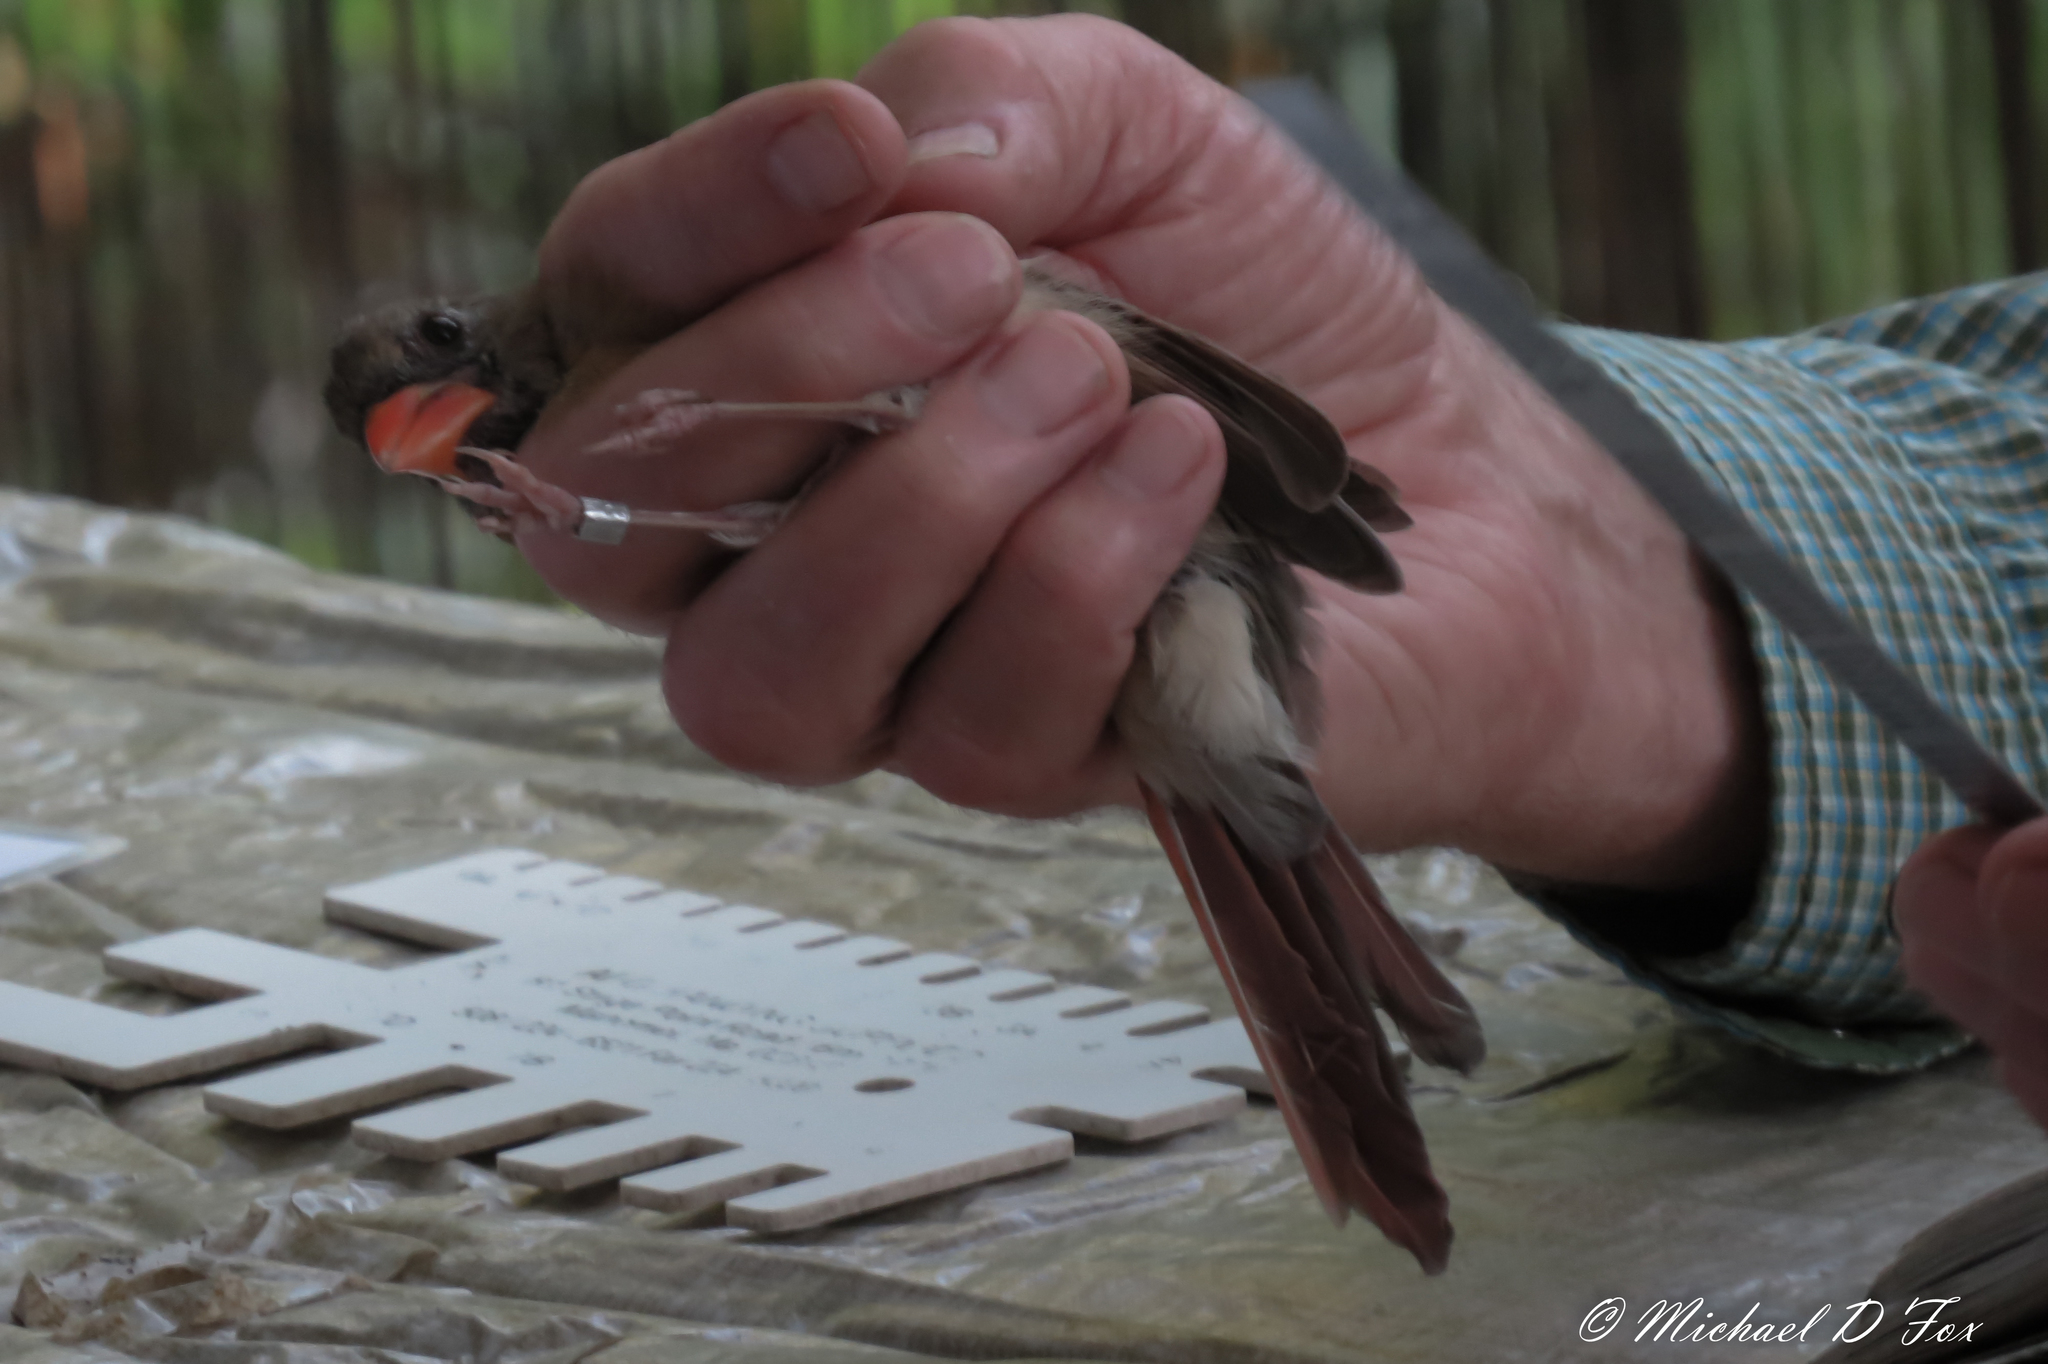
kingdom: Animalia
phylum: Chordata
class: Aves
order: Passeriformes
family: Cardinalidae
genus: Cardinalis
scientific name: Cardinalis cardinalis
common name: Northern cardinal
